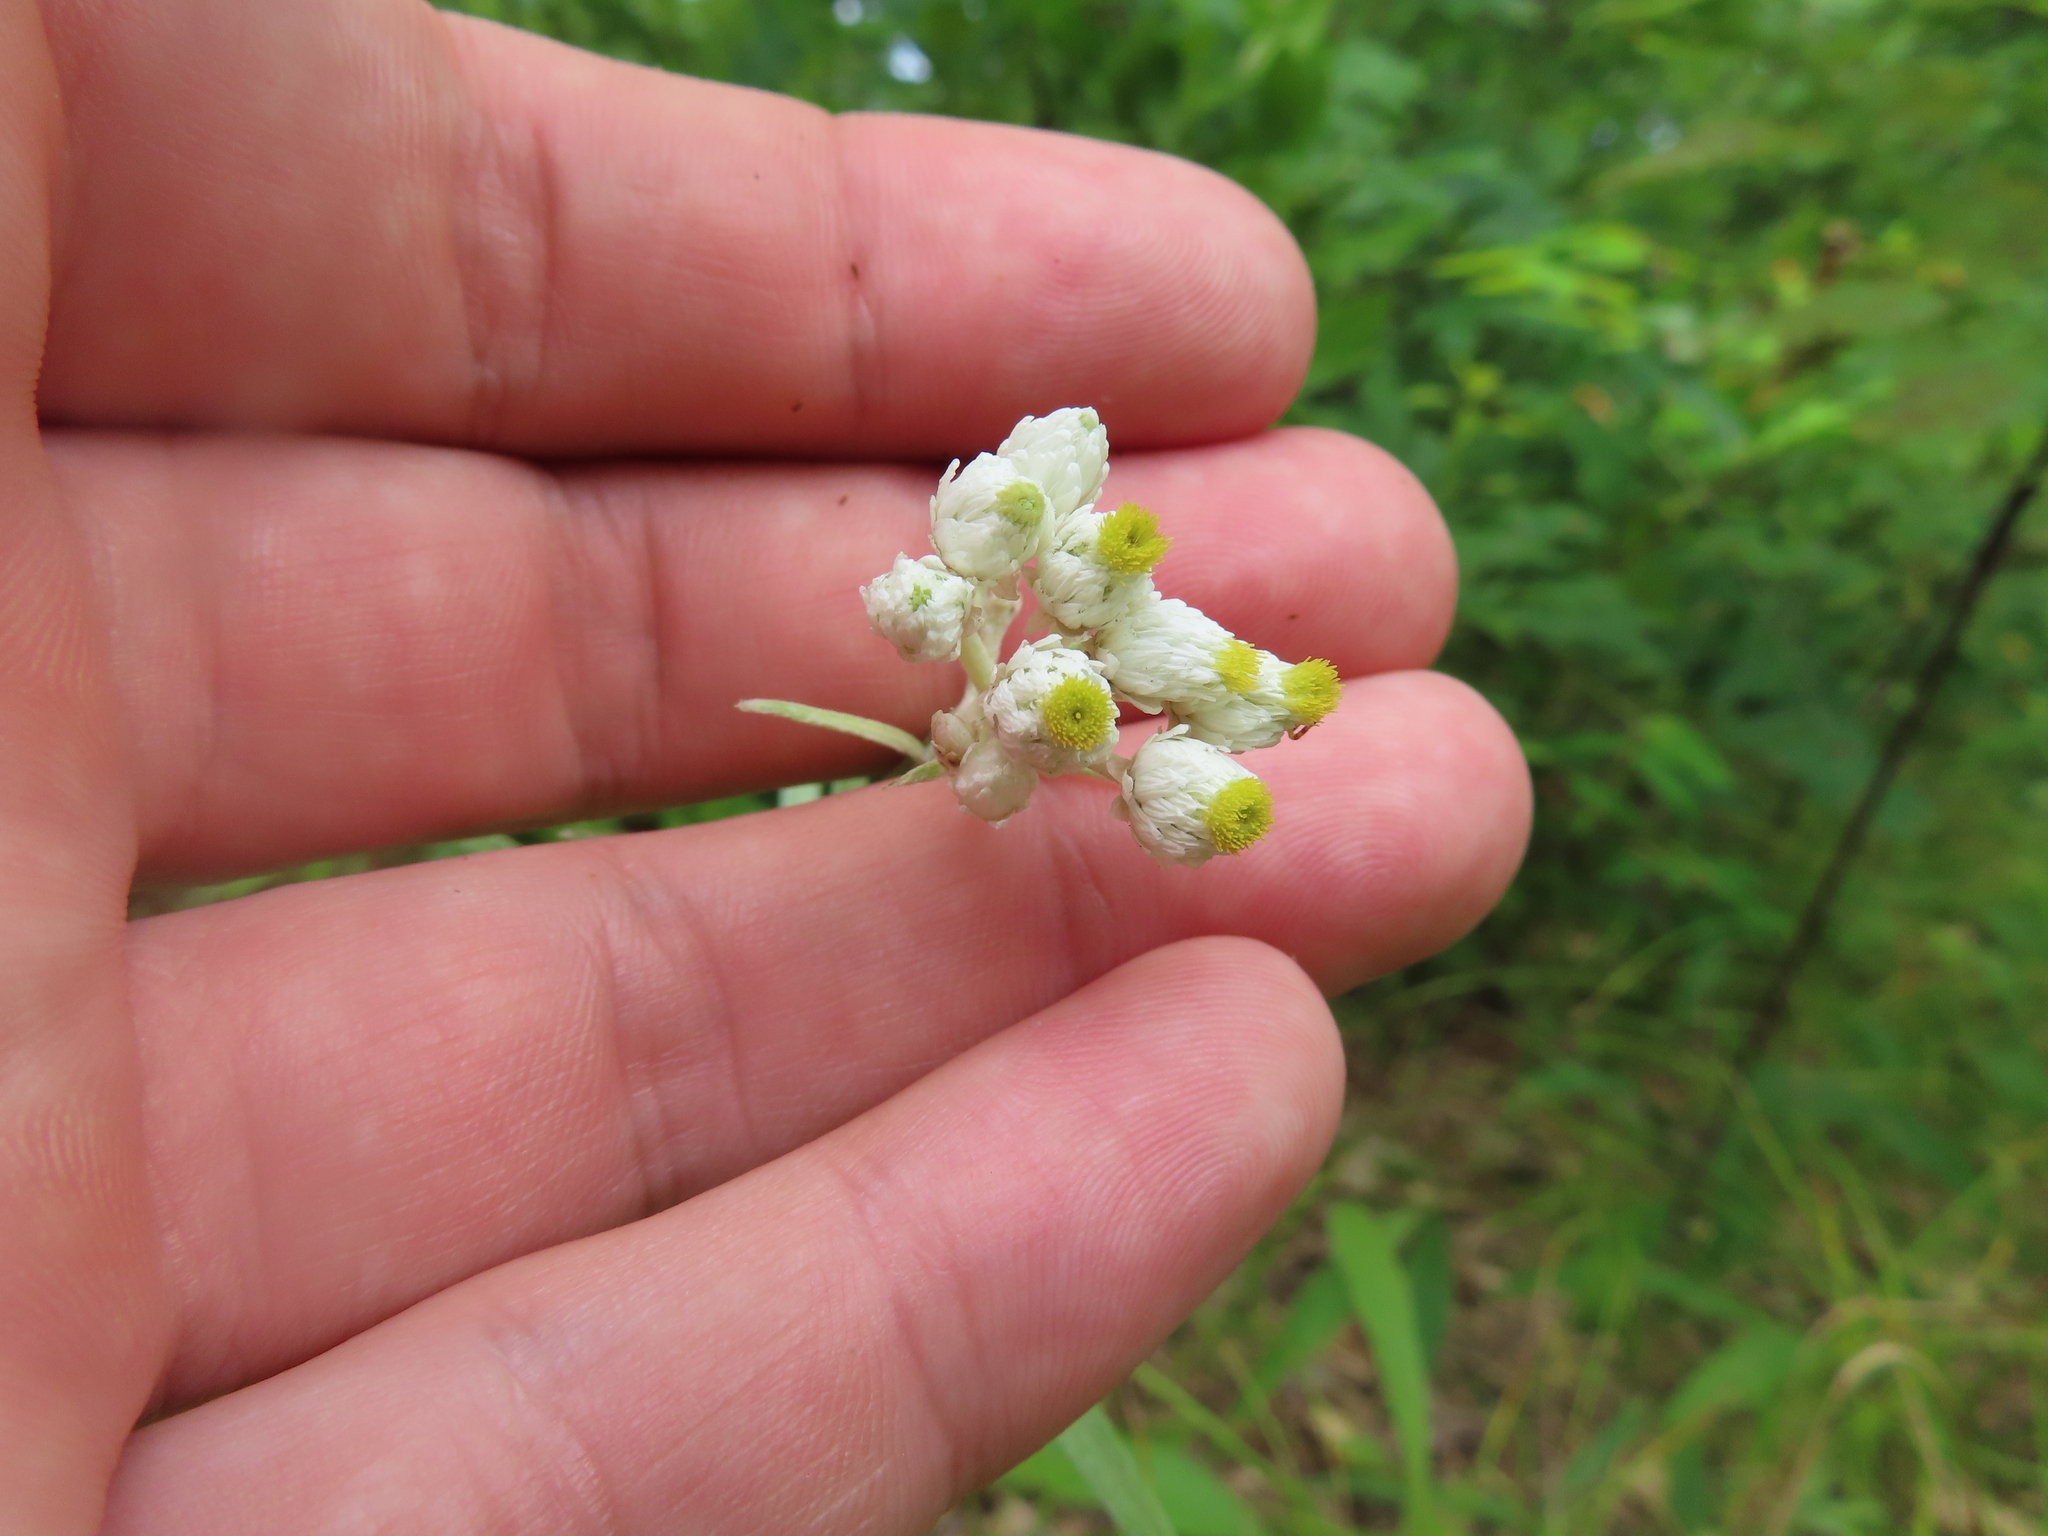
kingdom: Plantae
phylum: Tracheophyta
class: Magnoliopsida
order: Asterales
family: Asteraceae
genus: Anaphalis
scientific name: Anaphalis margaritacea
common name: Pearly everlasting
